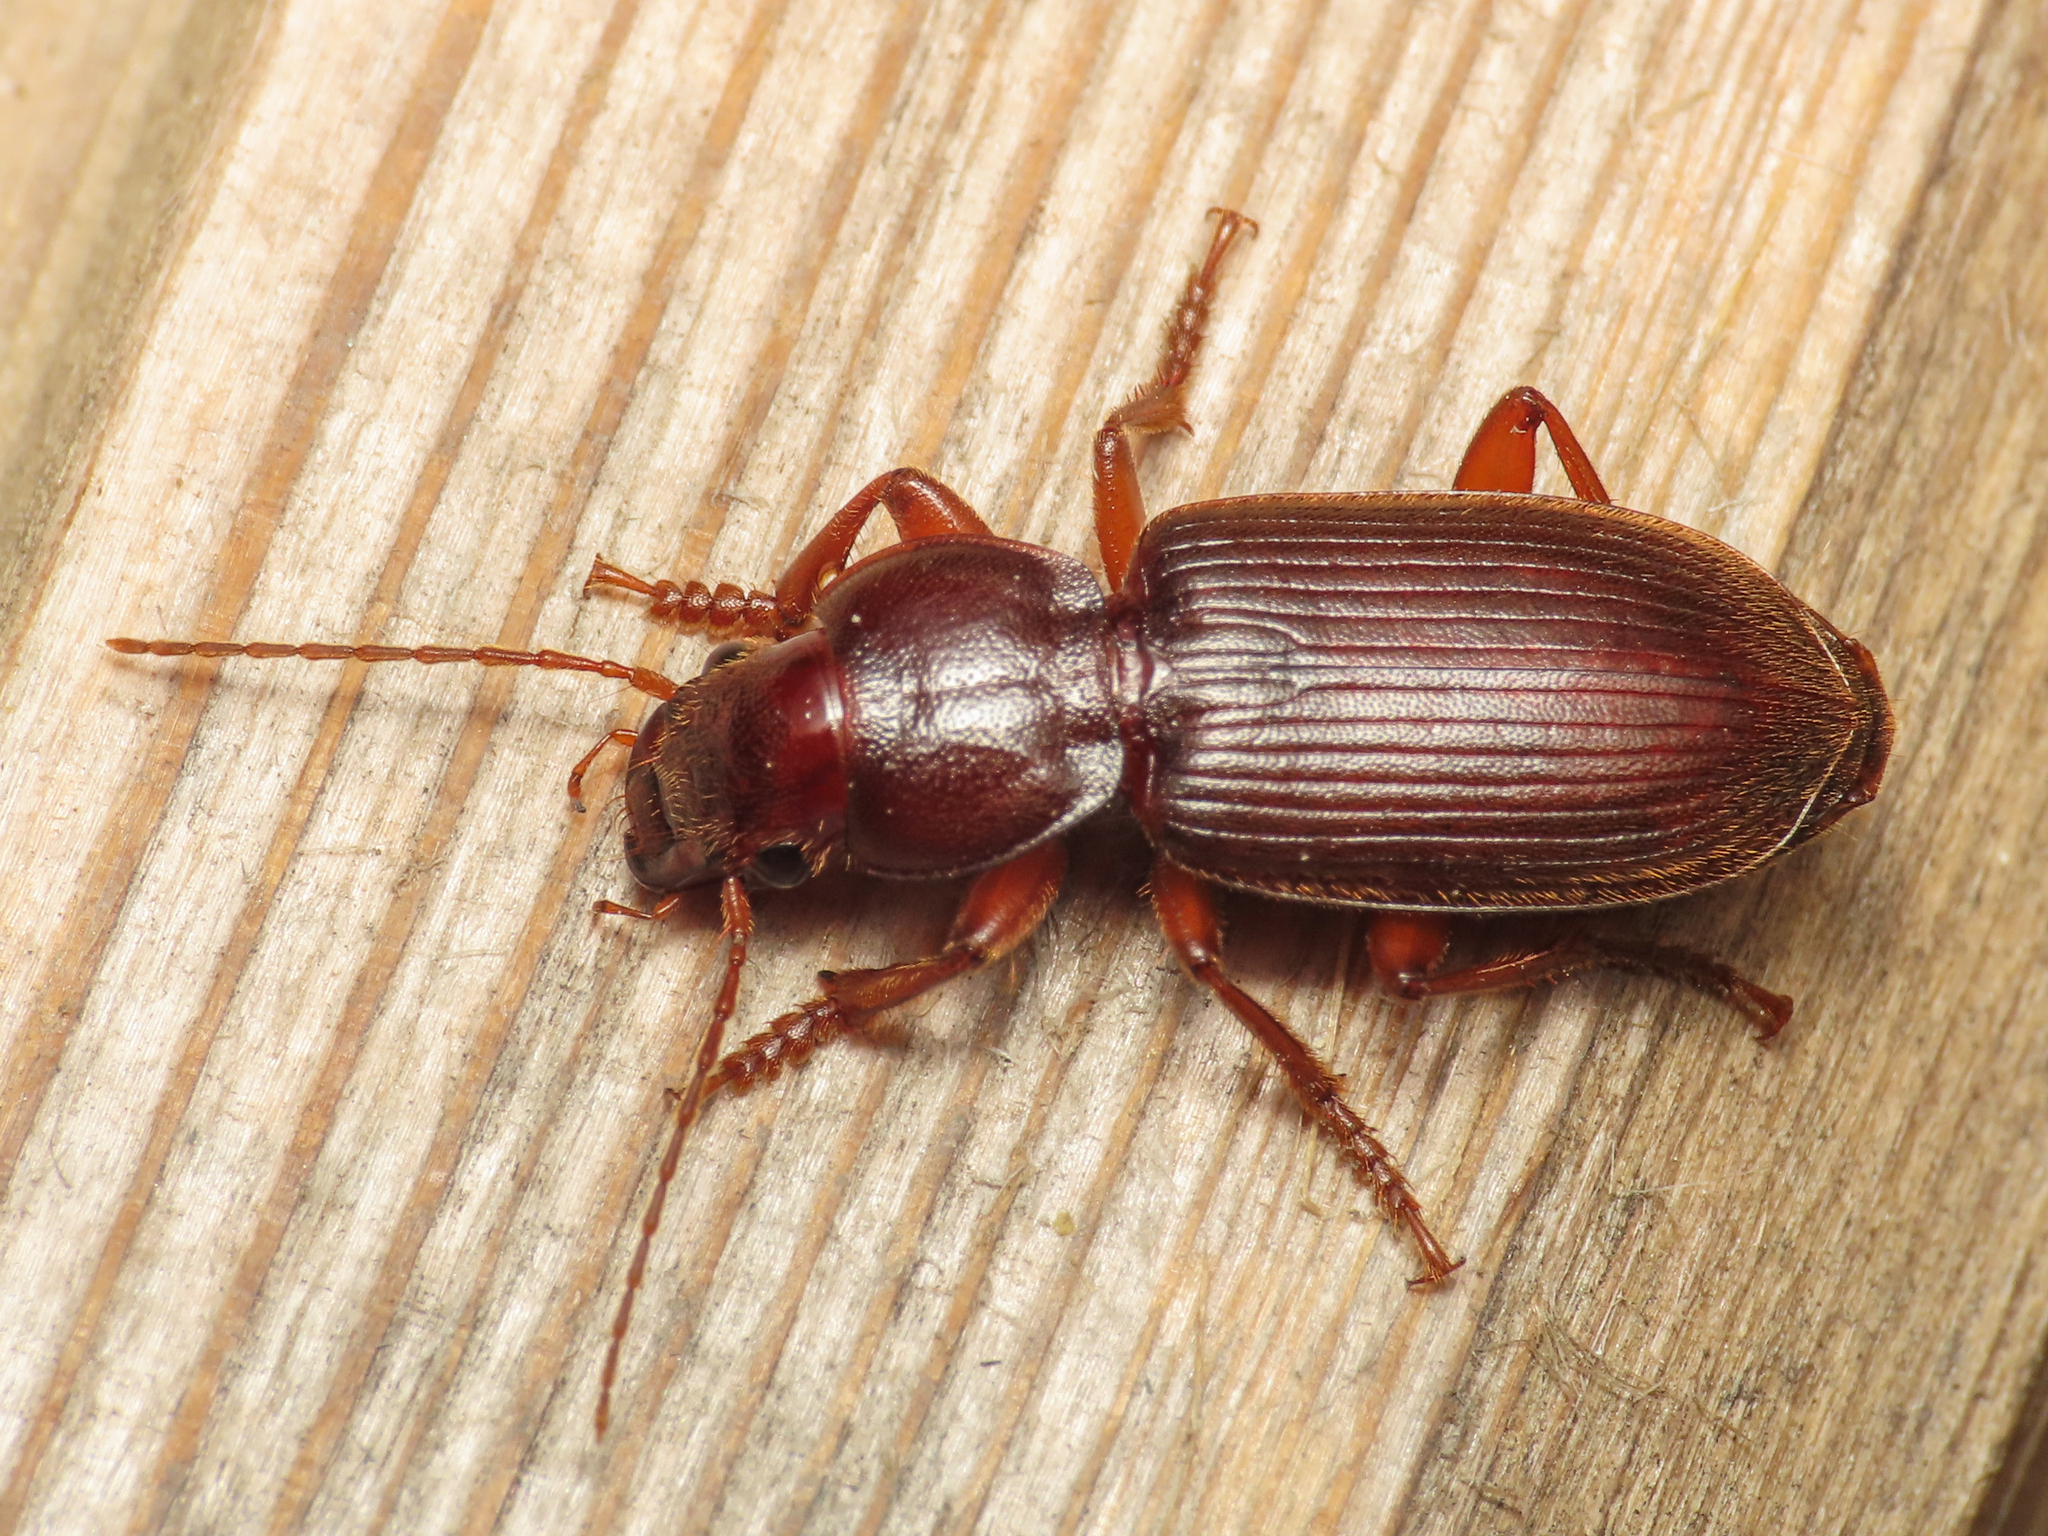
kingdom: Animalia
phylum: Arthropoda
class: Insecta
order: Coleoptera
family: Carabidae
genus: Scybalicus
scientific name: Scybalicus oblongiusculus
